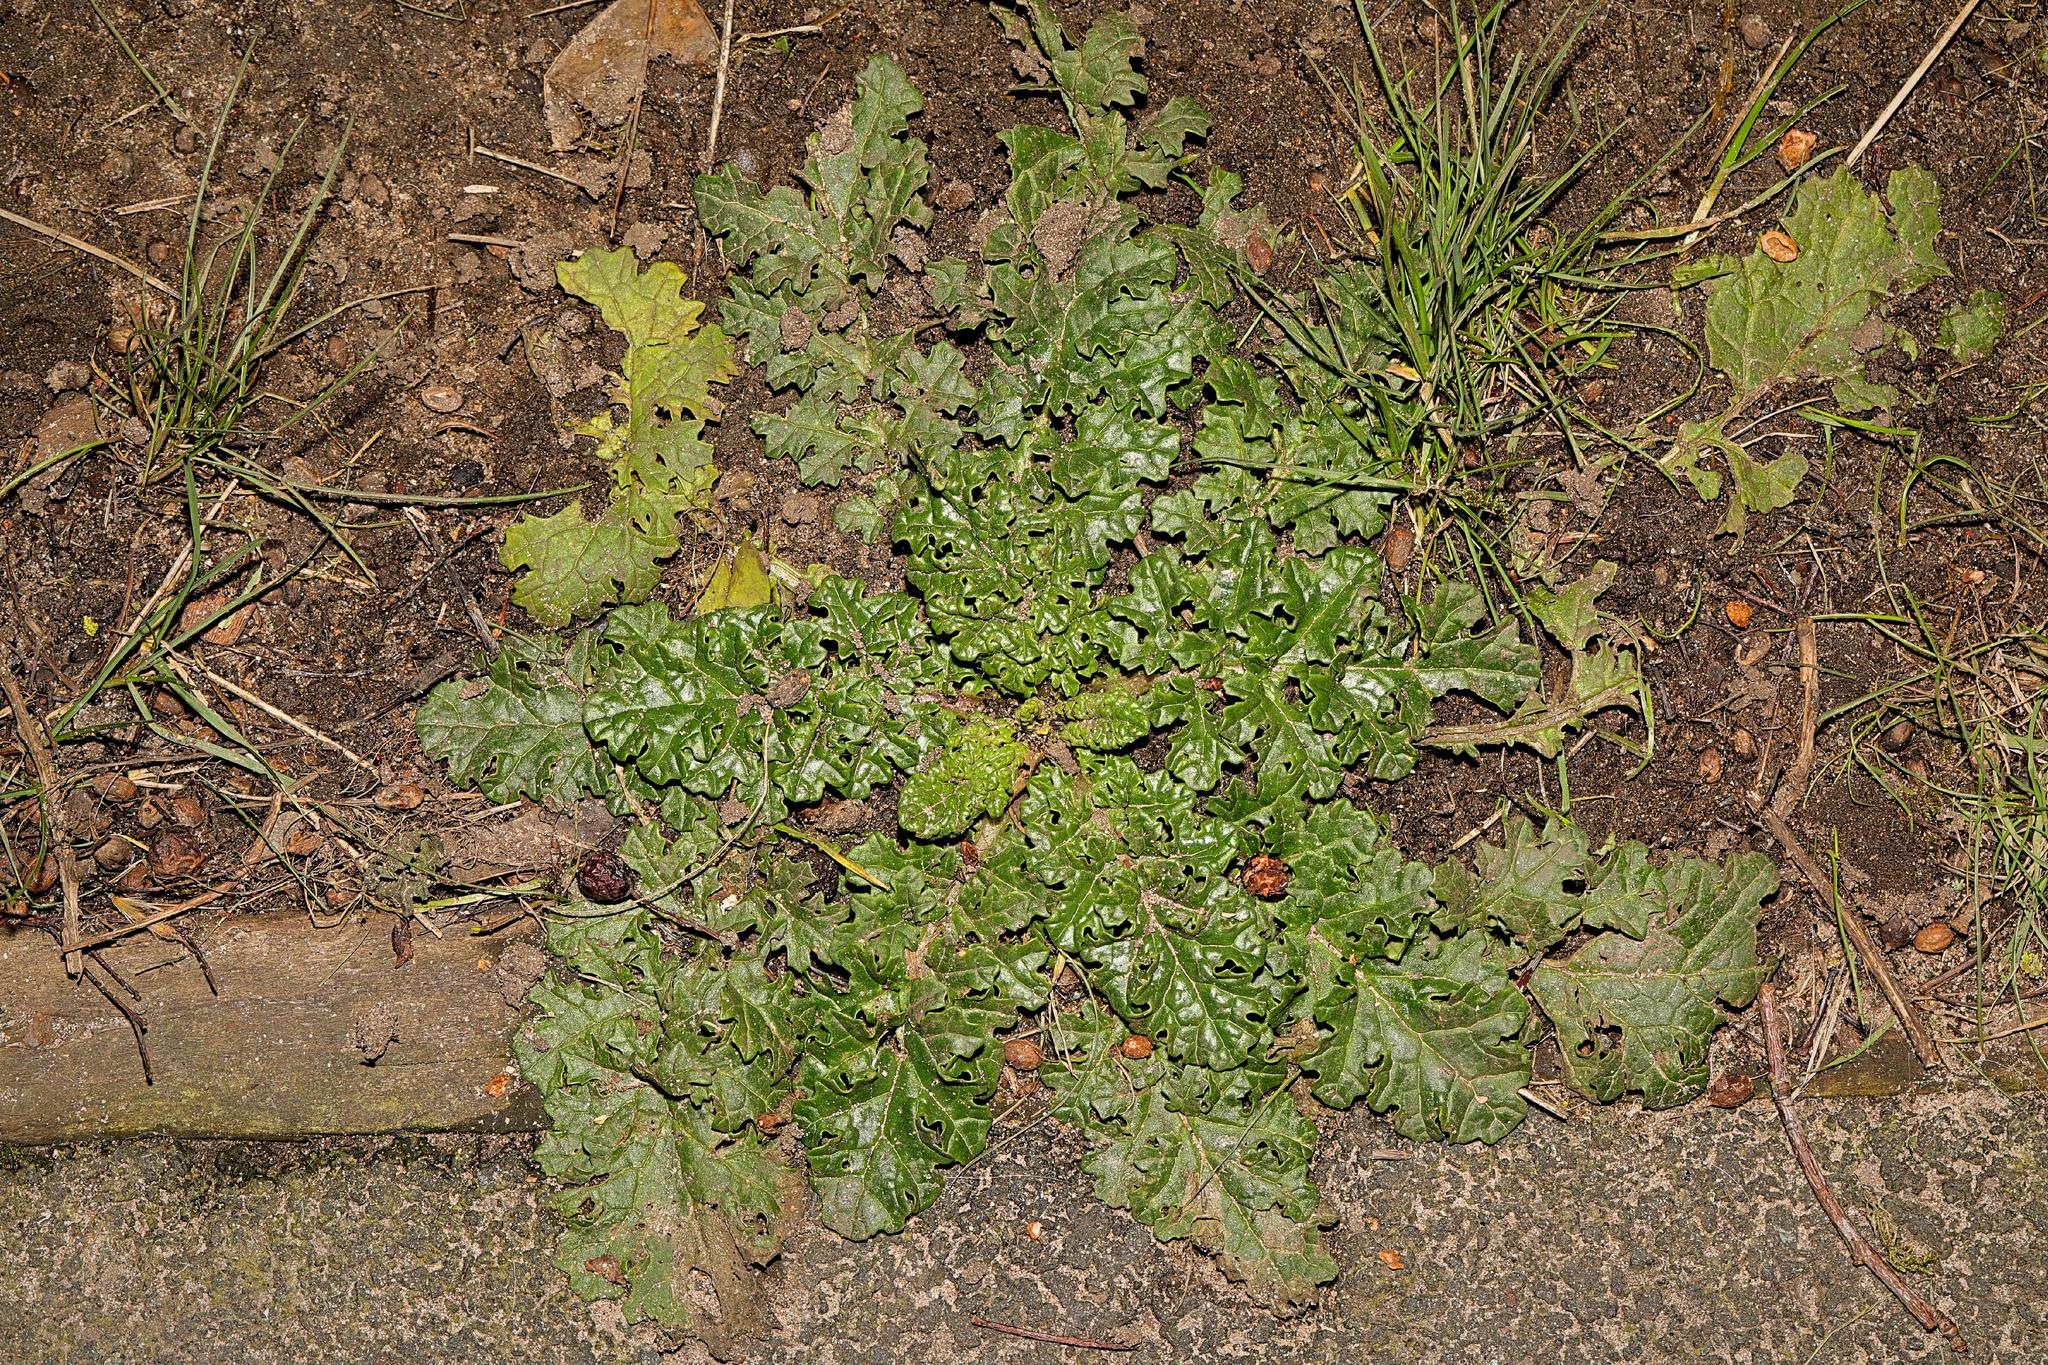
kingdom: Plantae
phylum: Tracheophyta
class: Magnoliopsida
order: Asterales
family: Asteraceae
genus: Jacobaea
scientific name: Jacobaea vulgaris
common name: Stinking willie
